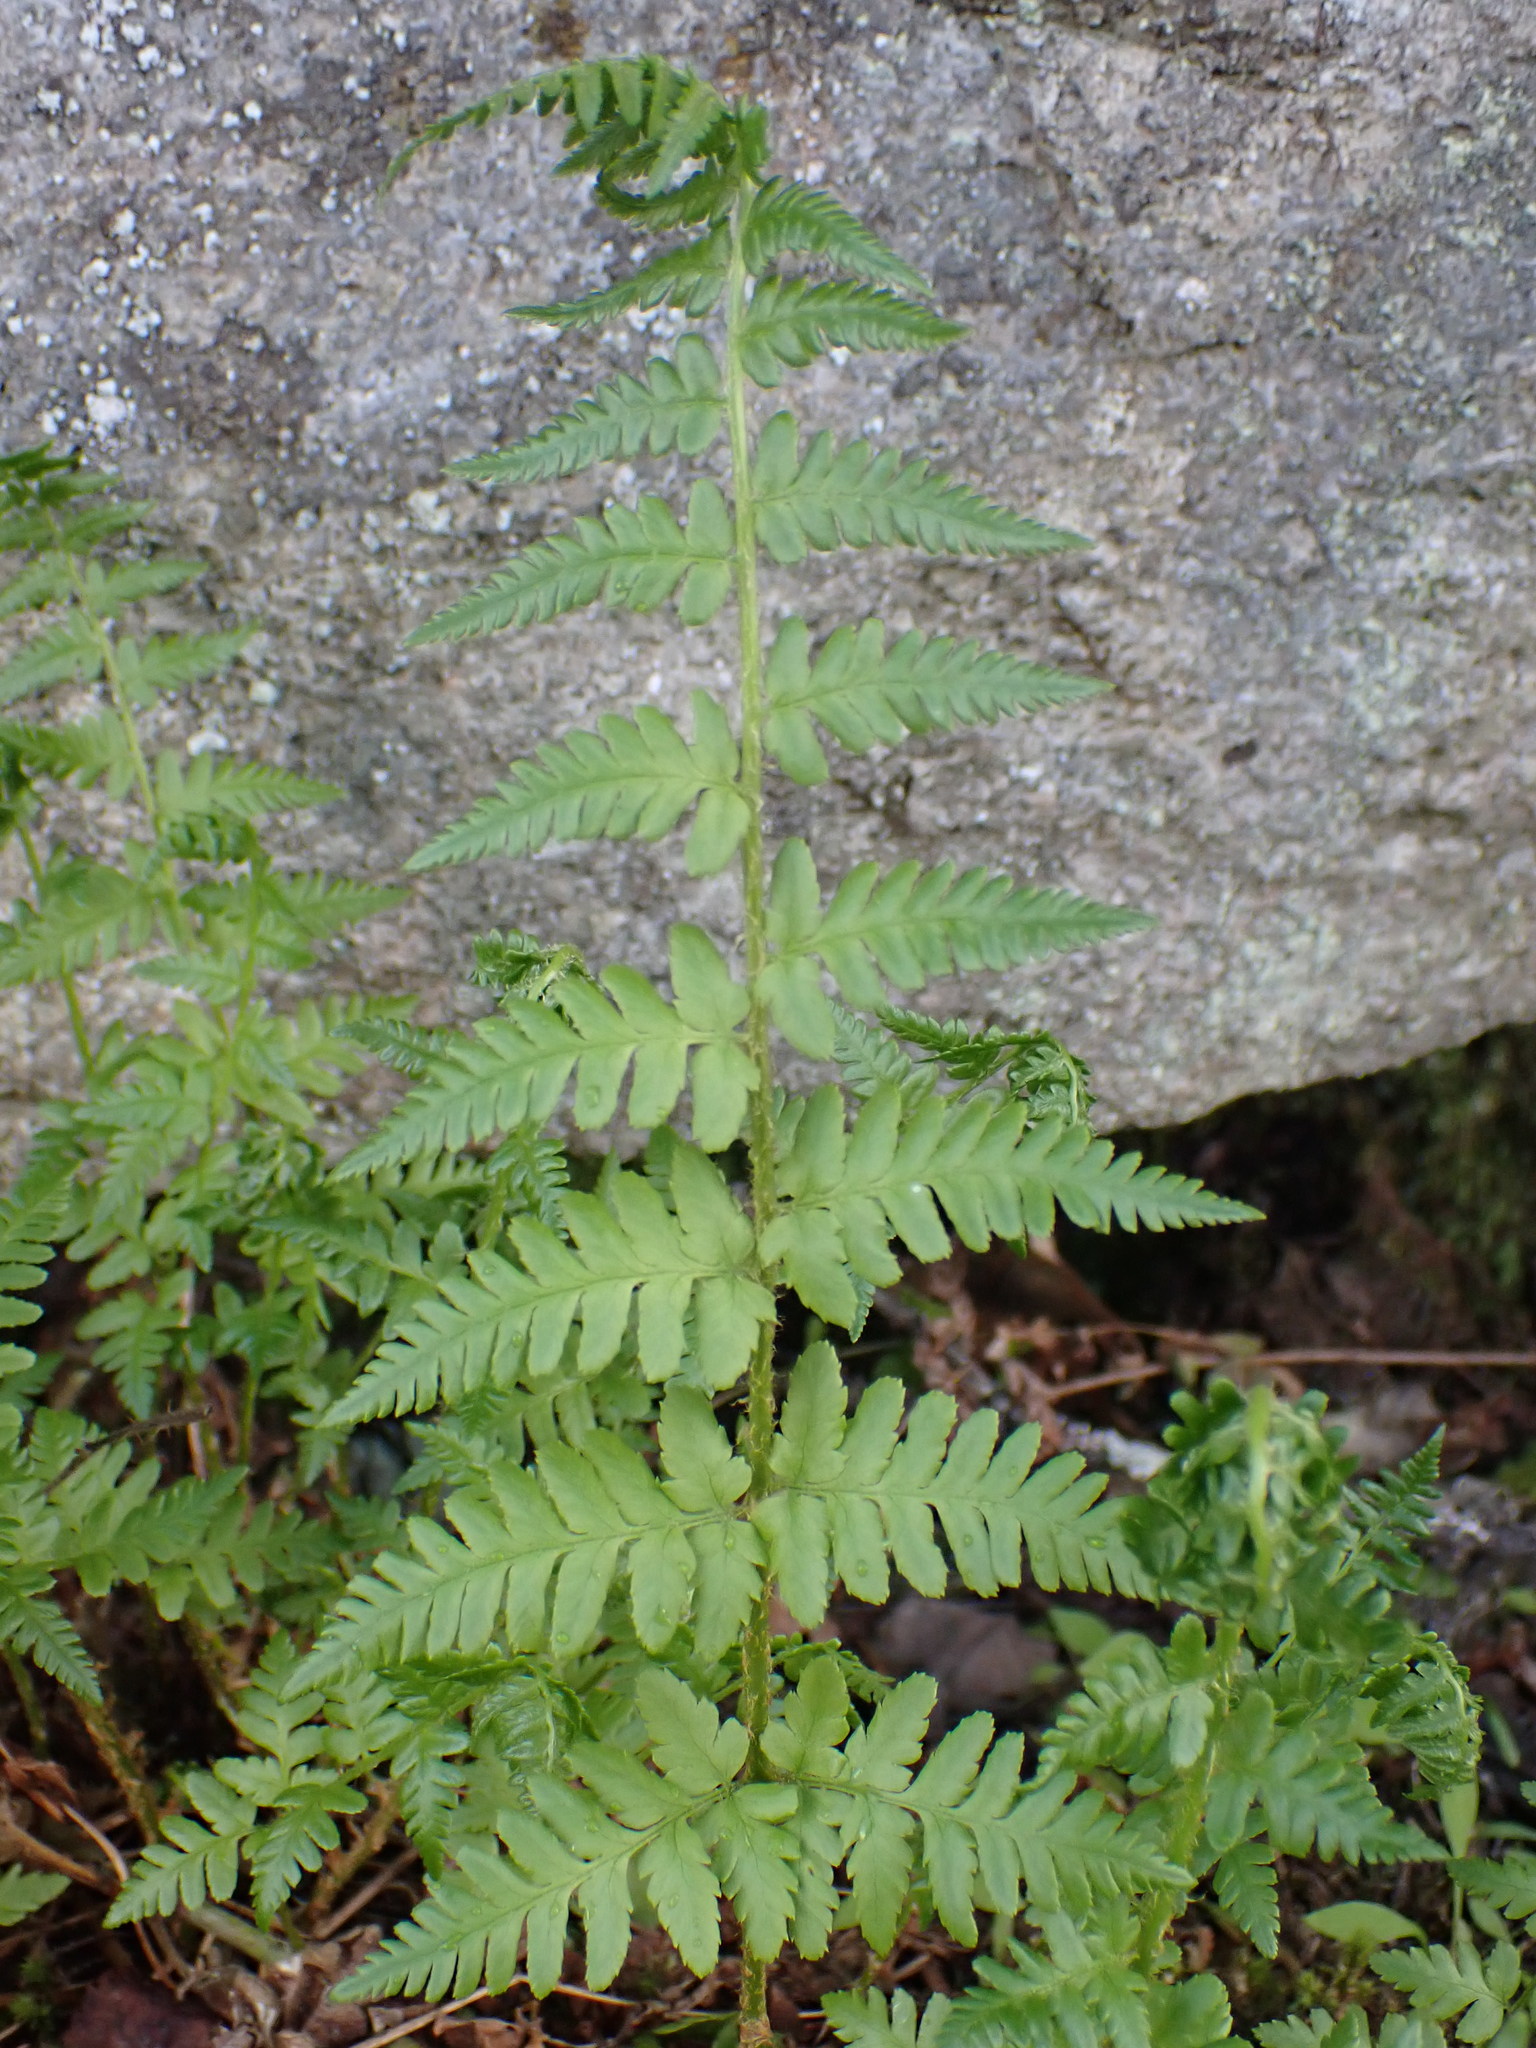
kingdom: Plantae
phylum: Tracheophyta
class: Polypodiopsida
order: Polypodiales
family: Dryopteridaceae
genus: Dryopteris
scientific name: Dryopteris filix-mas
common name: Male fern
